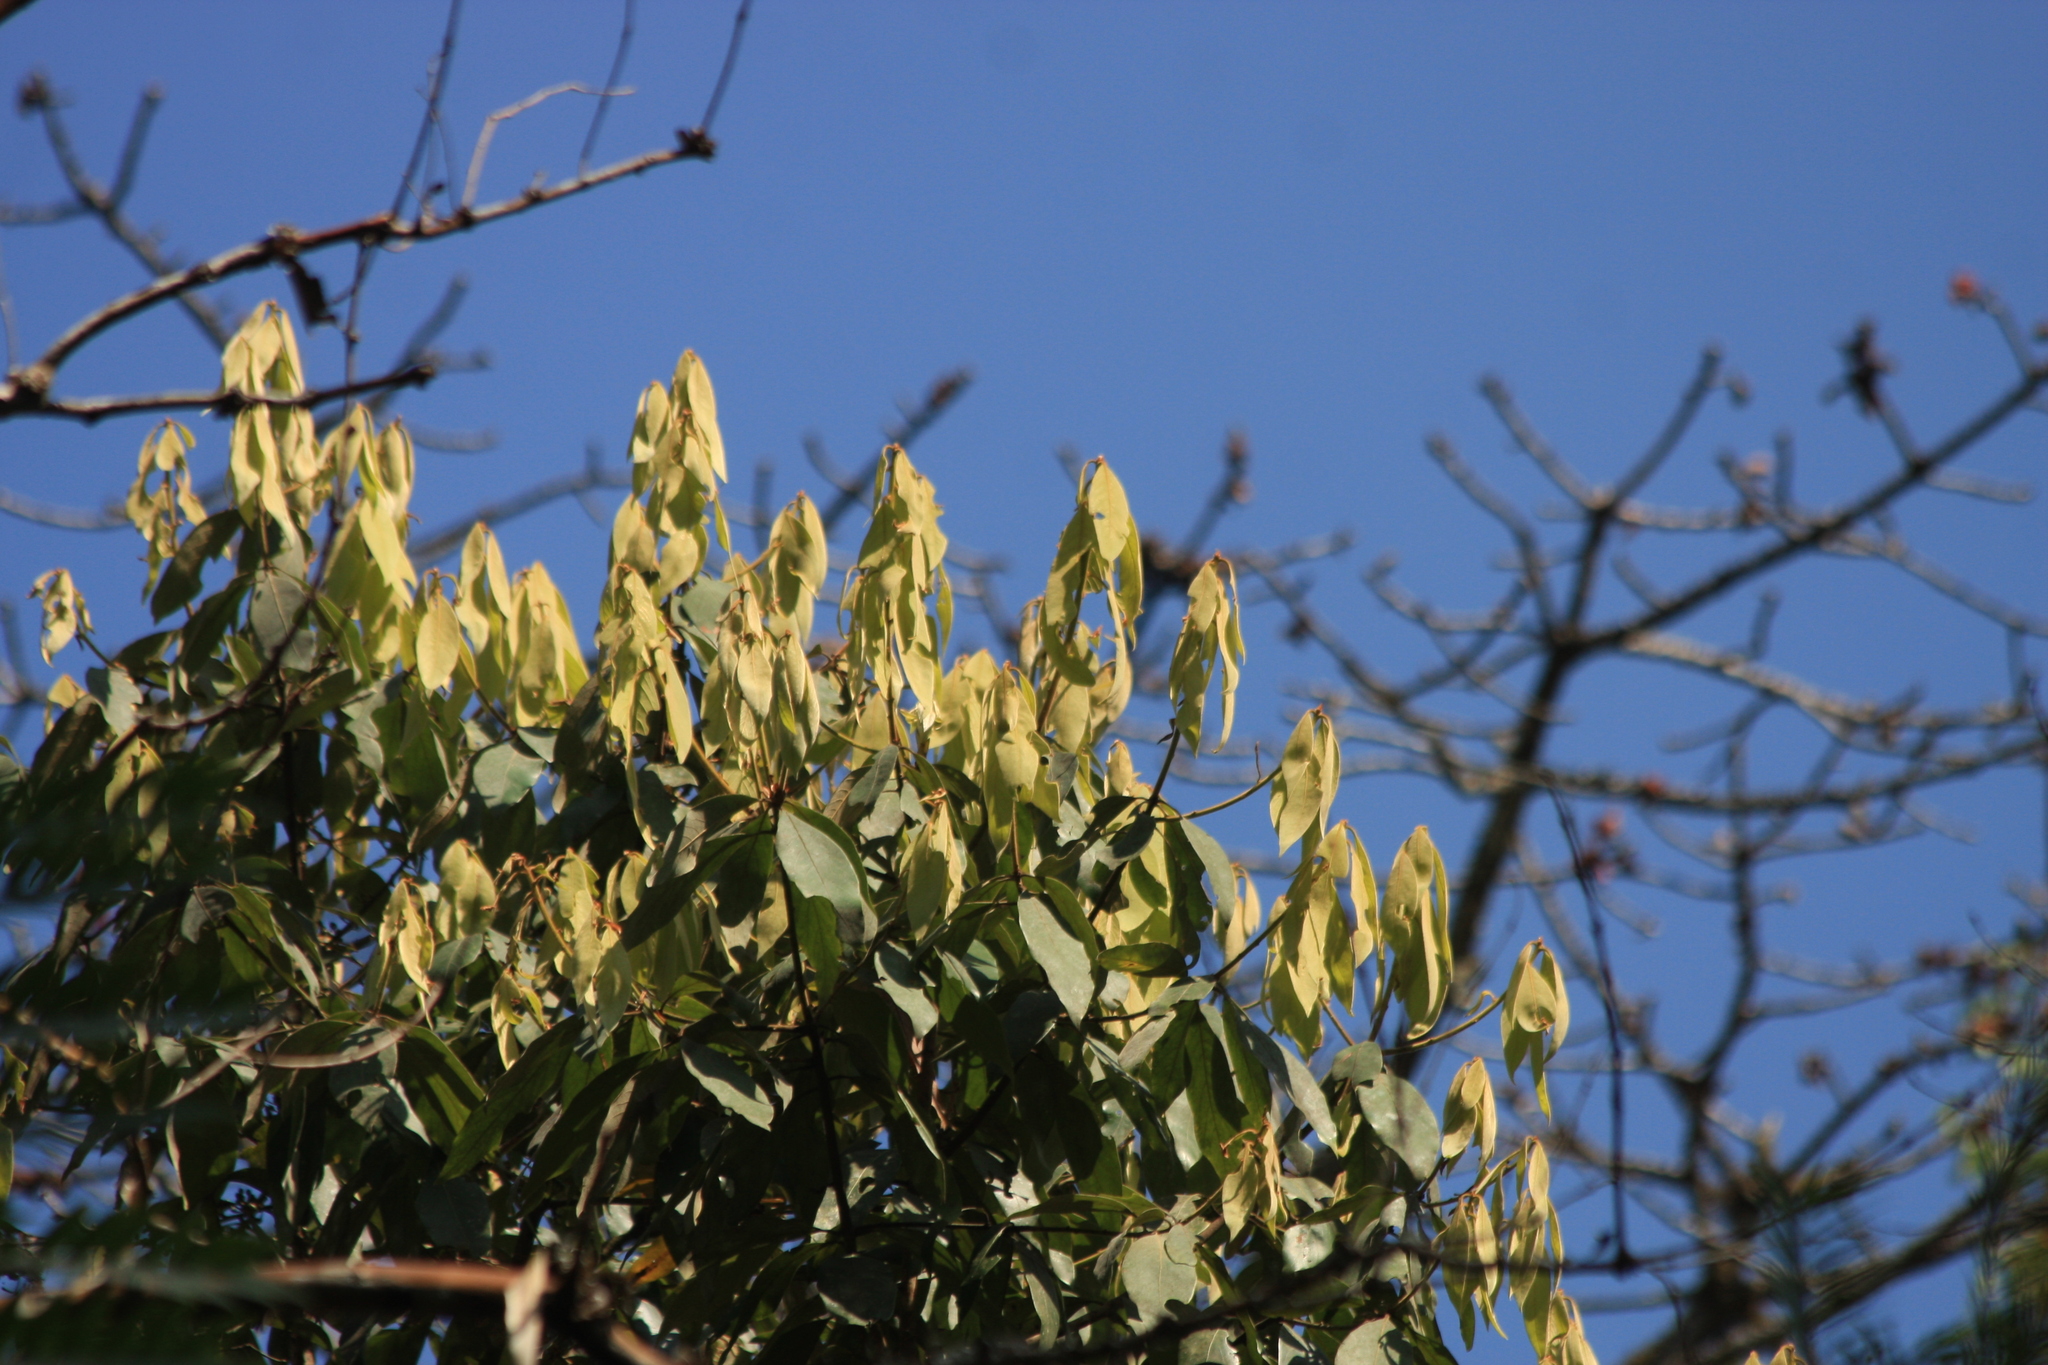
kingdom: Plantae
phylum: Tracheophyta
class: Magnoliopsida
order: Laurales
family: Lauraceae
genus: Actinodaphne
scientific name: Actinodaphne wightiana
